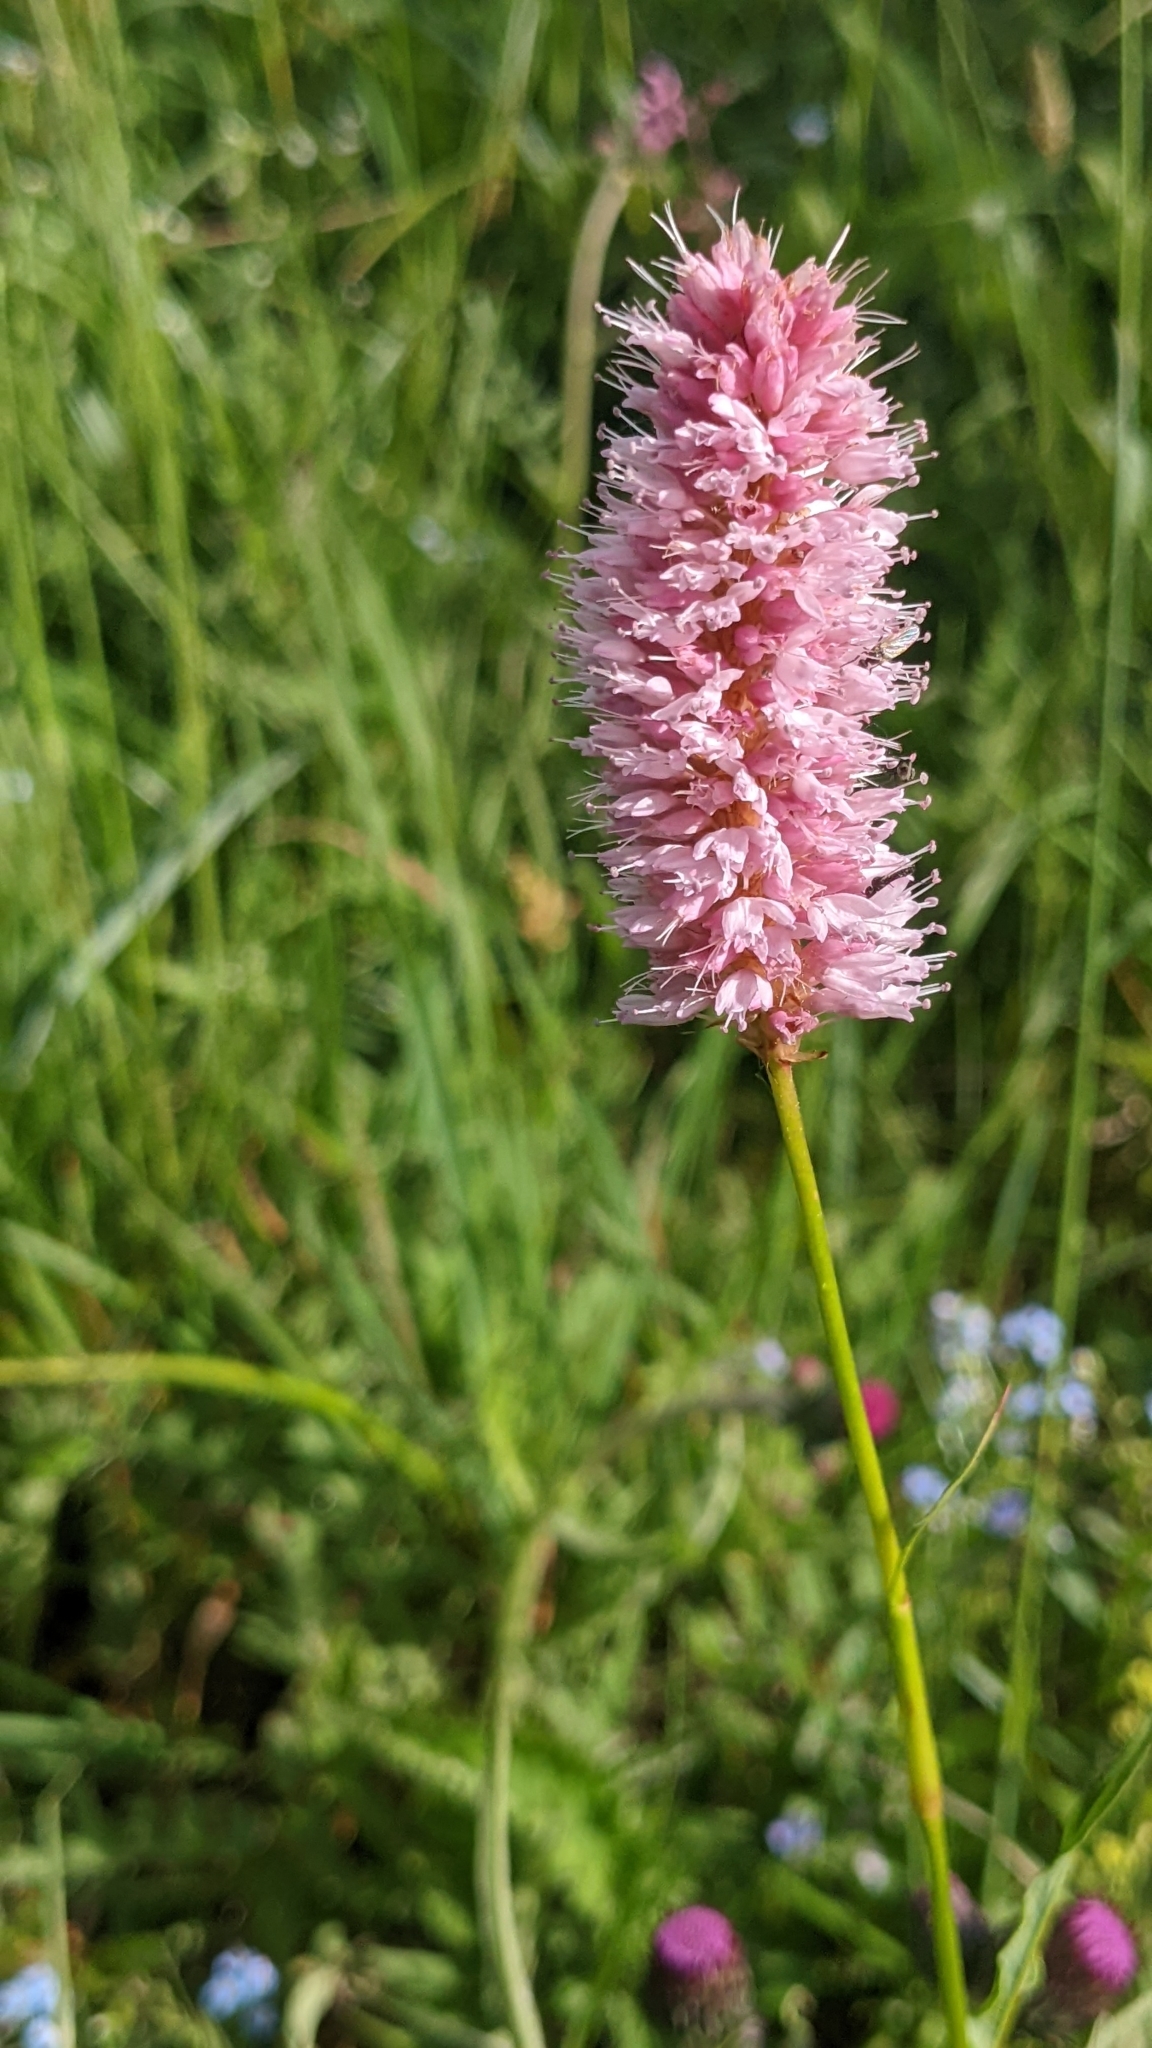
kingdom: Plantae
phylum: Tracheophyta
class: Magnoliopsida
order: Caryophyllales
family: Polygonaceae
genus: Bistorta
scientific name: Bistorta officinalis
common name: Common bistort
